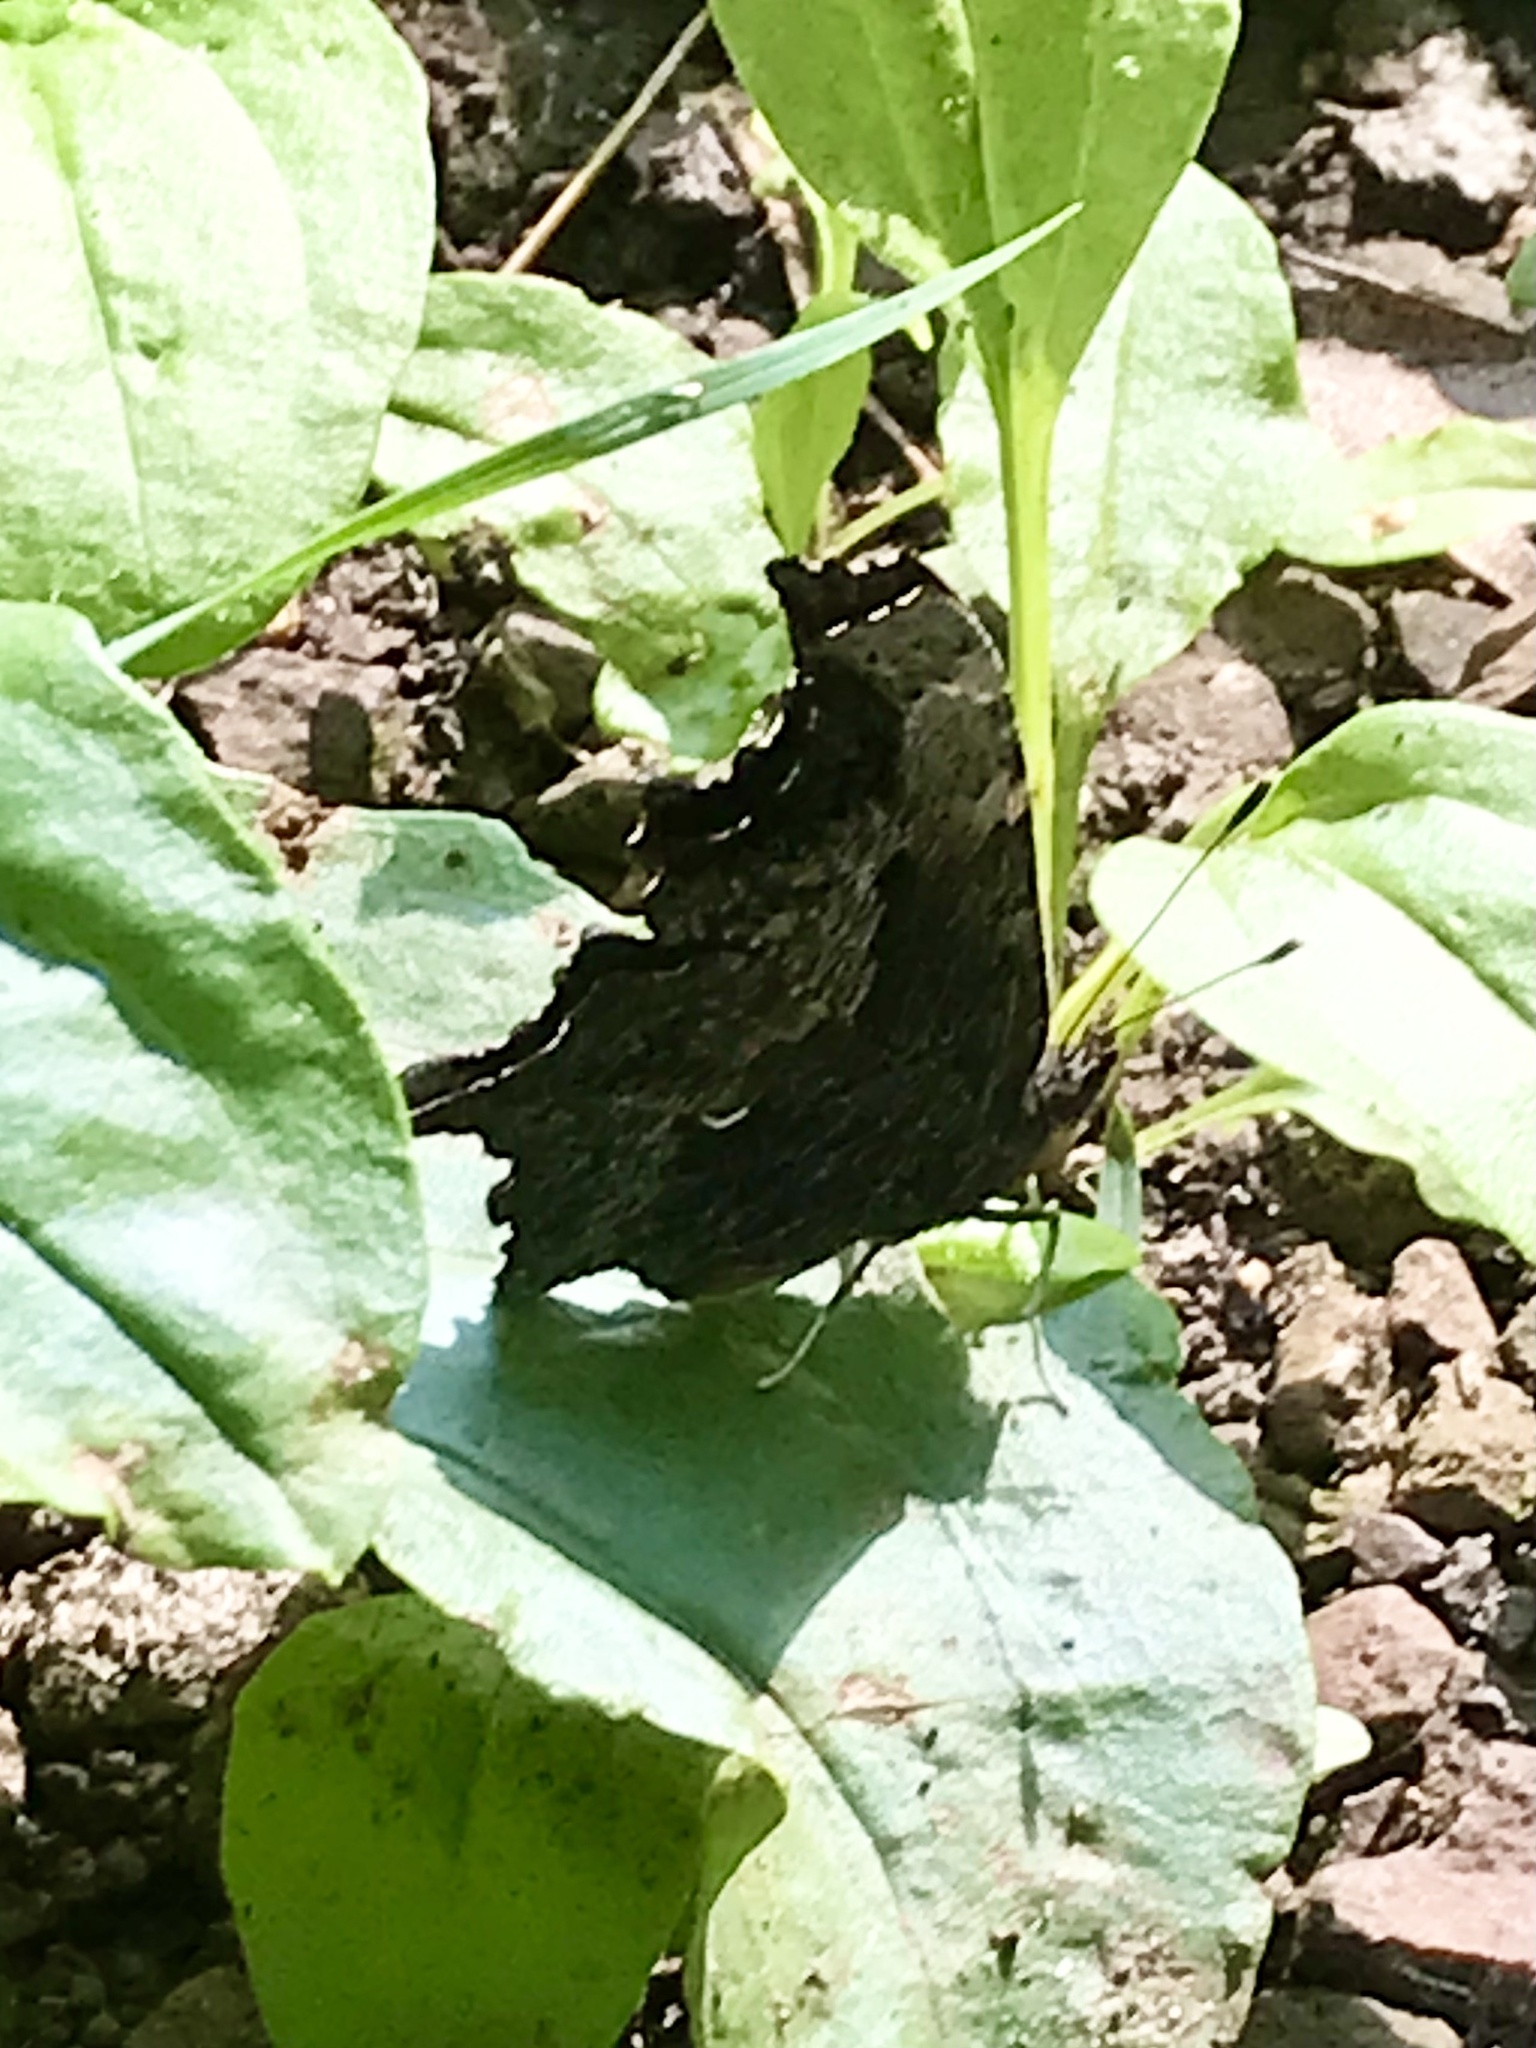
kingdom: Animalia
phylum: Arthropoda
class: Insecta
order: Lepidoptera
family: Nymphalidae
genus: Polygonia
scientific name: Polygonia progne
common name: Gray comma
